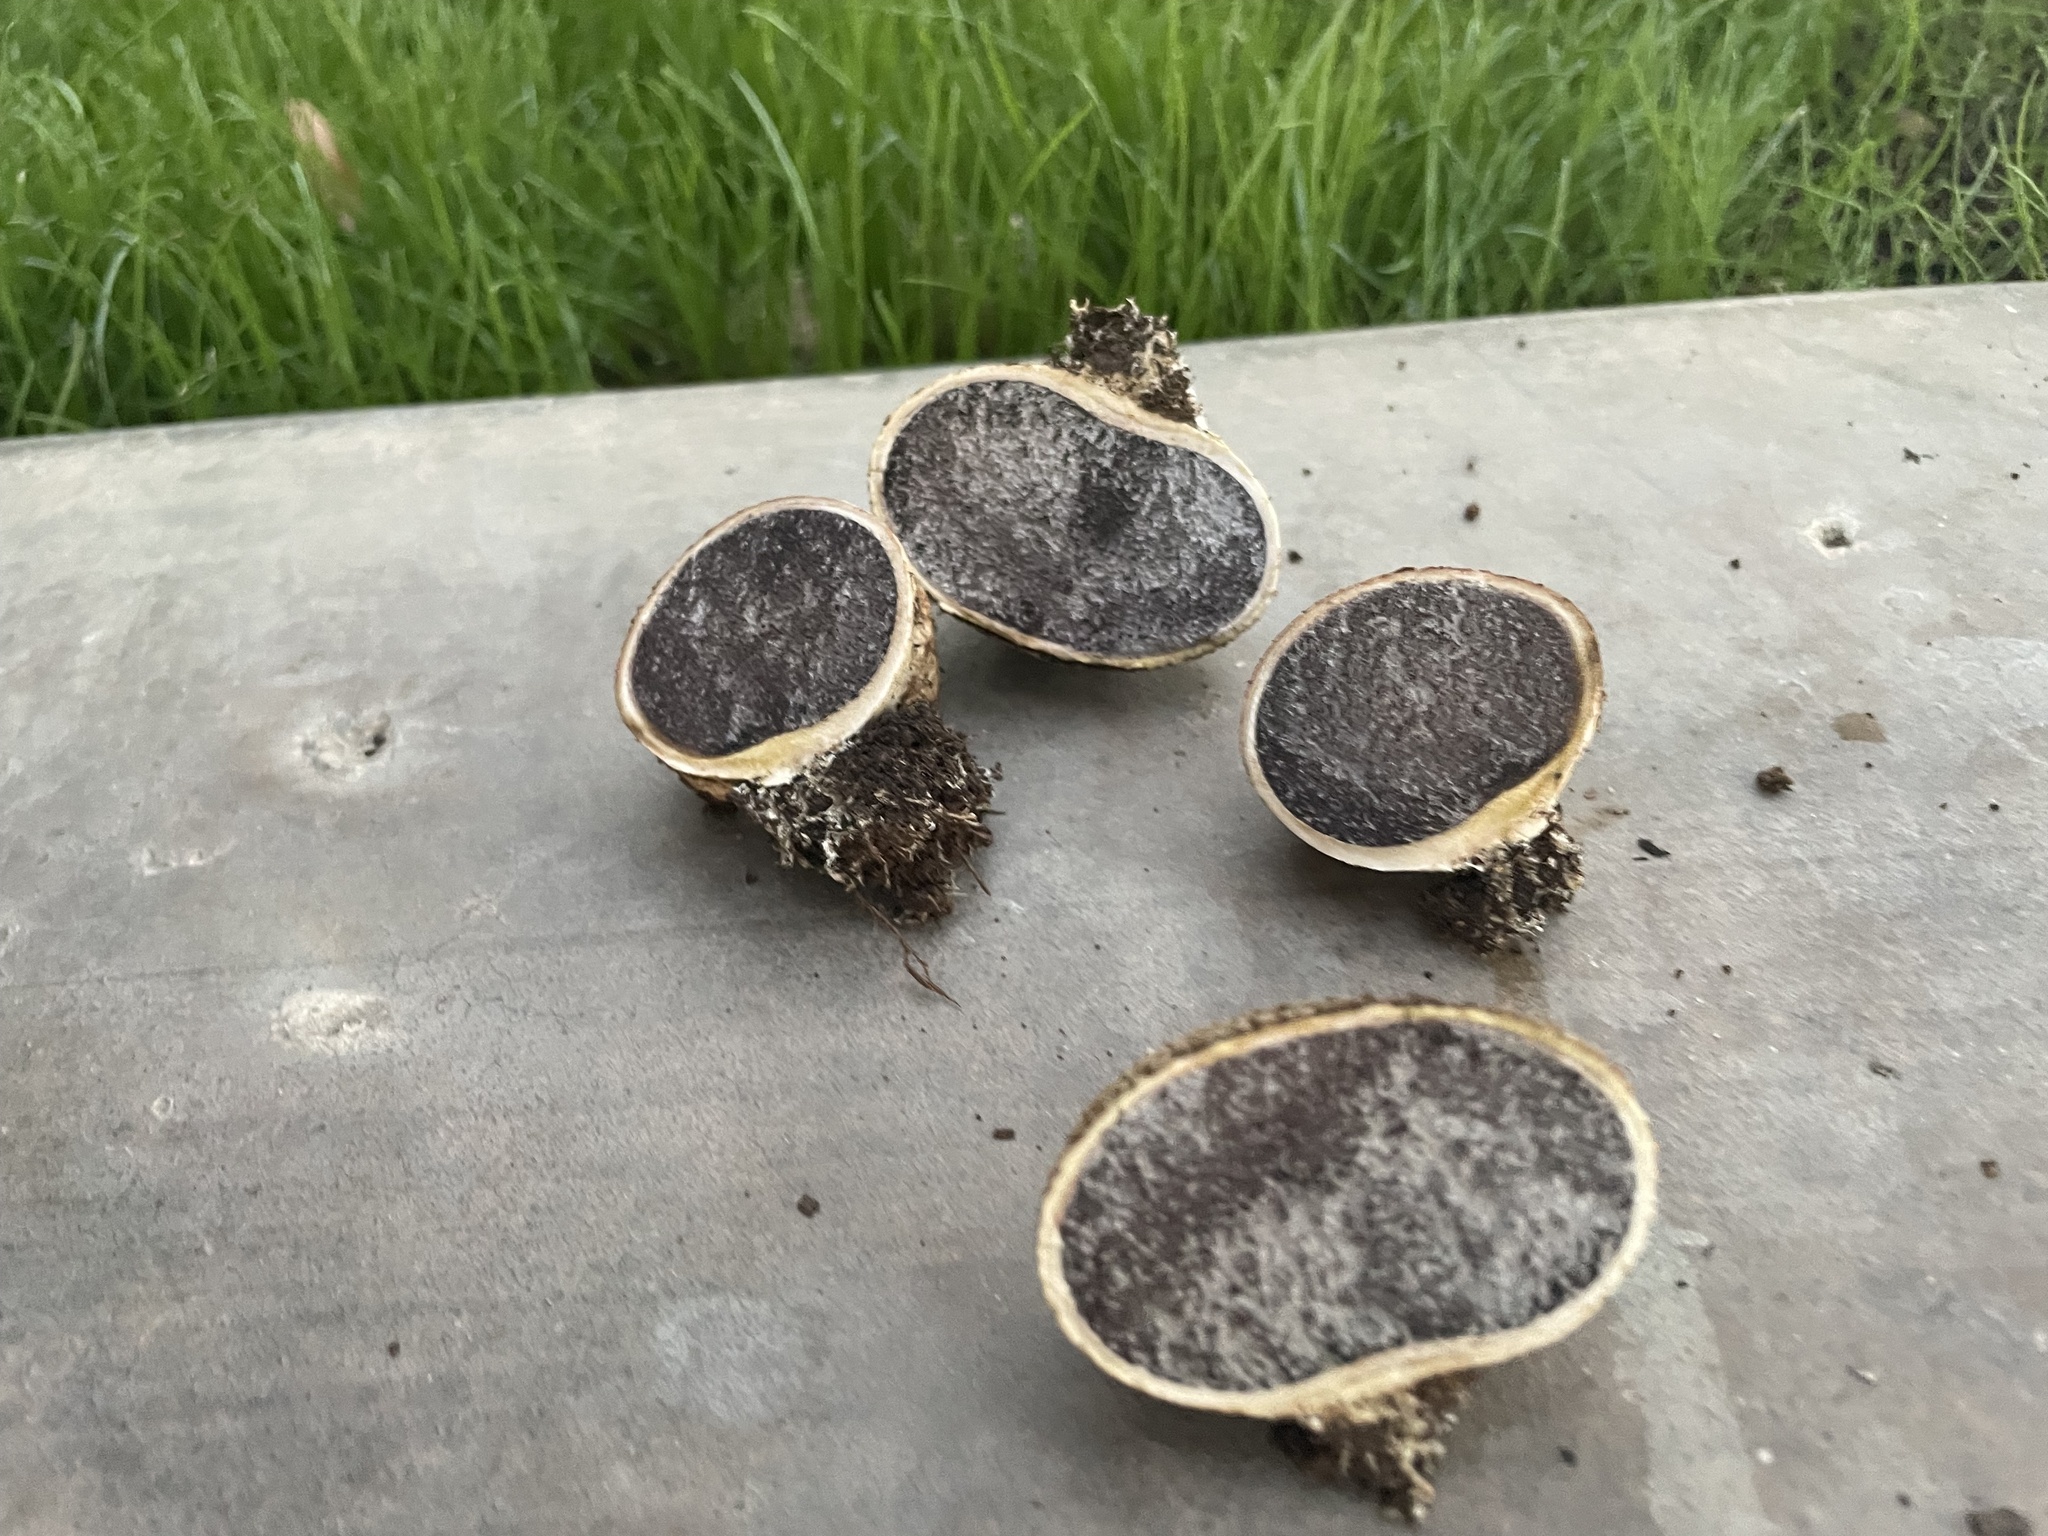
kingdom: Fungi
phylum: Basidiomycota
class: Agaricomycetes
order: Boletales
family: Sclerodermataceae
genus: Scleroderma
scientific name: Scleroderma citrinum
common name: Common earthball
